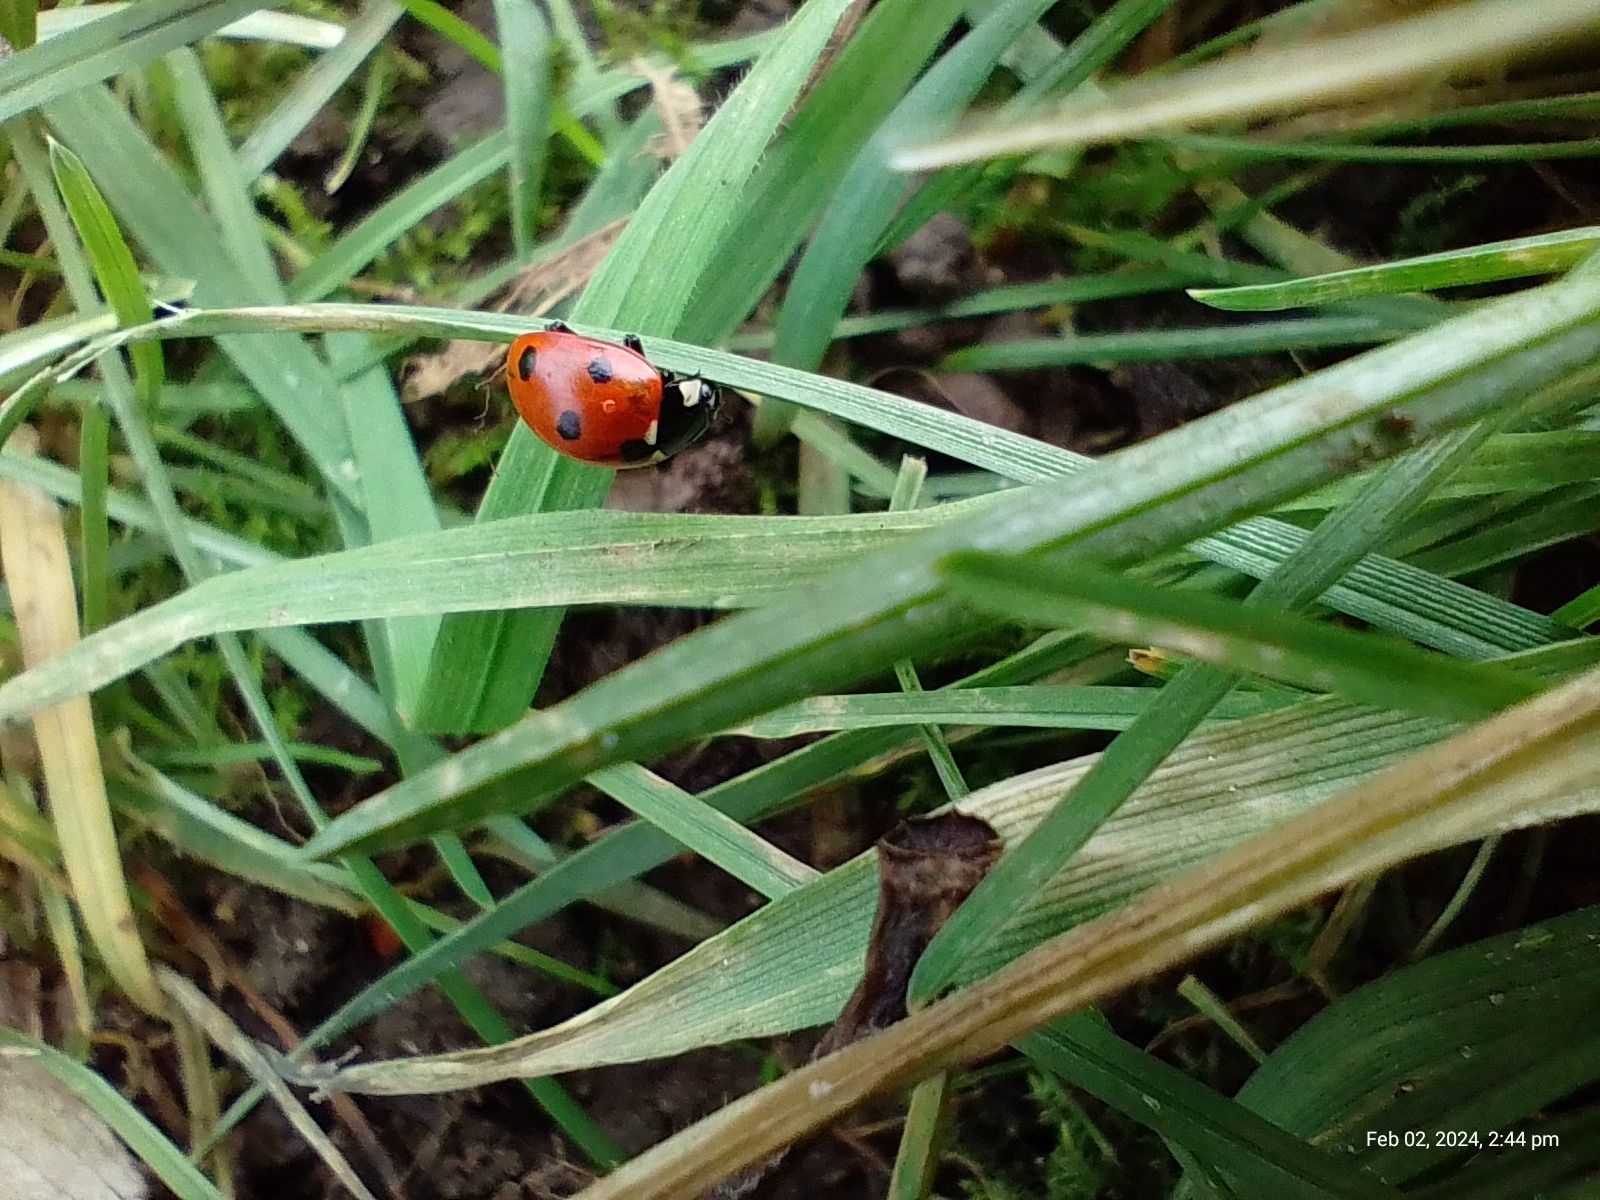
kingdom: Animalia
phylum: Arthropoda
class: Insecta
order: Coleoptera
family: Coccinellidae
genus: Coccinella
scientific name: Coccinella septempunctata
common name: Sevenspotted lady beetle
